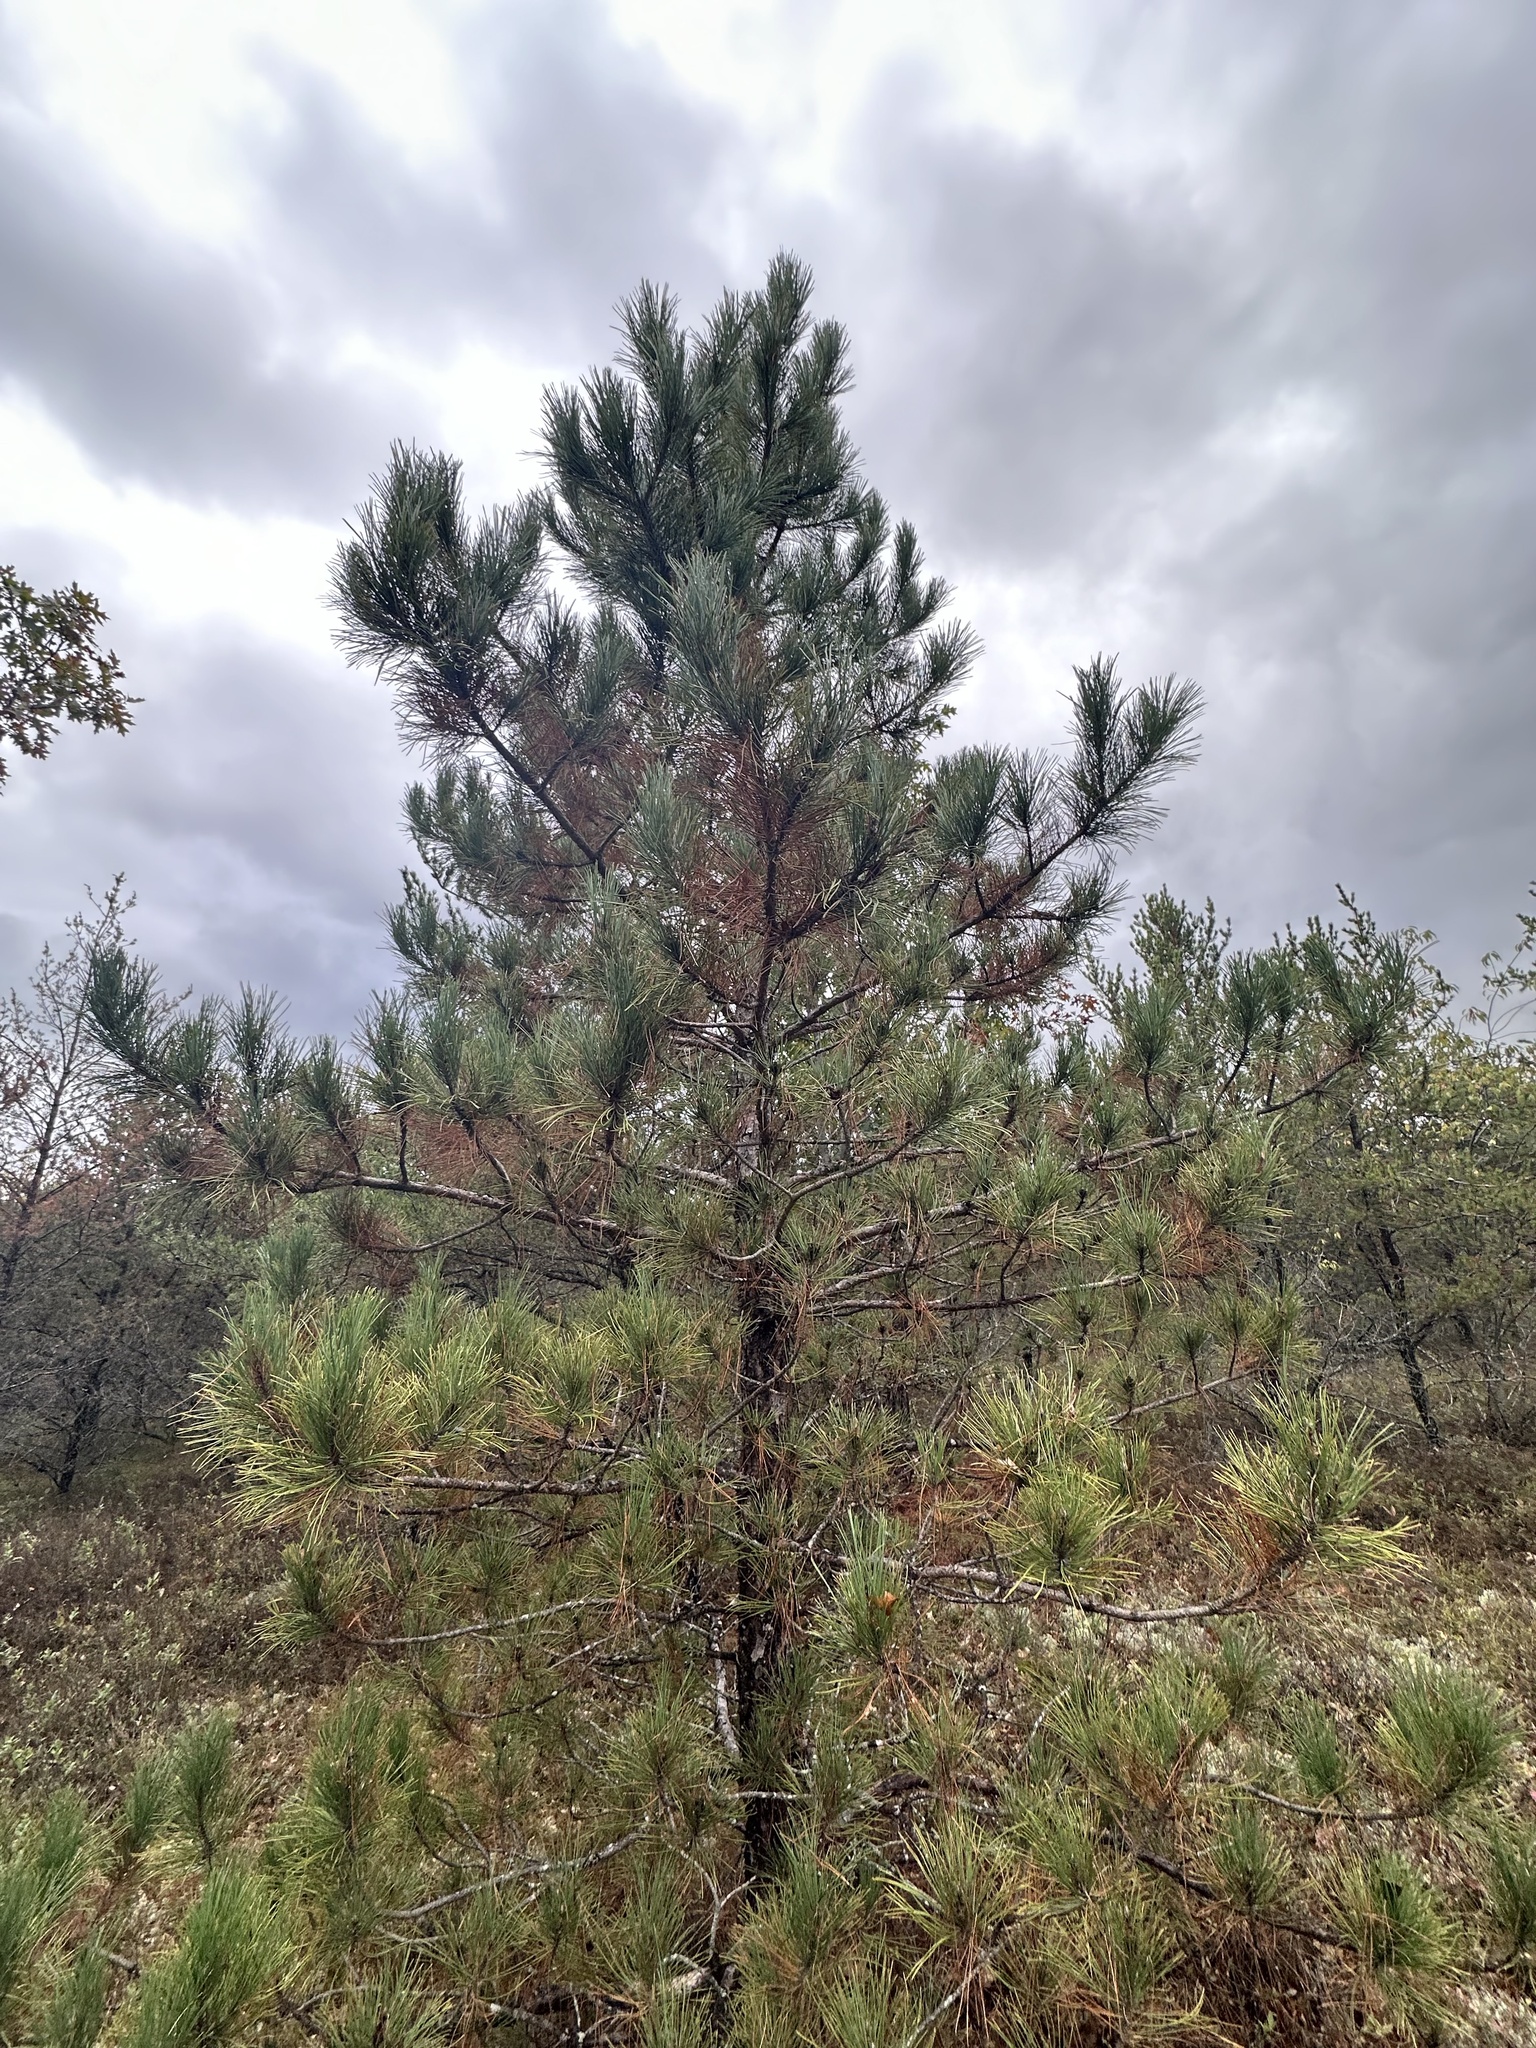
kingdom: Plantae
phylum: Tracheophyta
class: Pinopsida
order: Pinales
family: Pinaceae
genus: Pinus
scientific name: Pinus resinosa
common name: Norway pine
